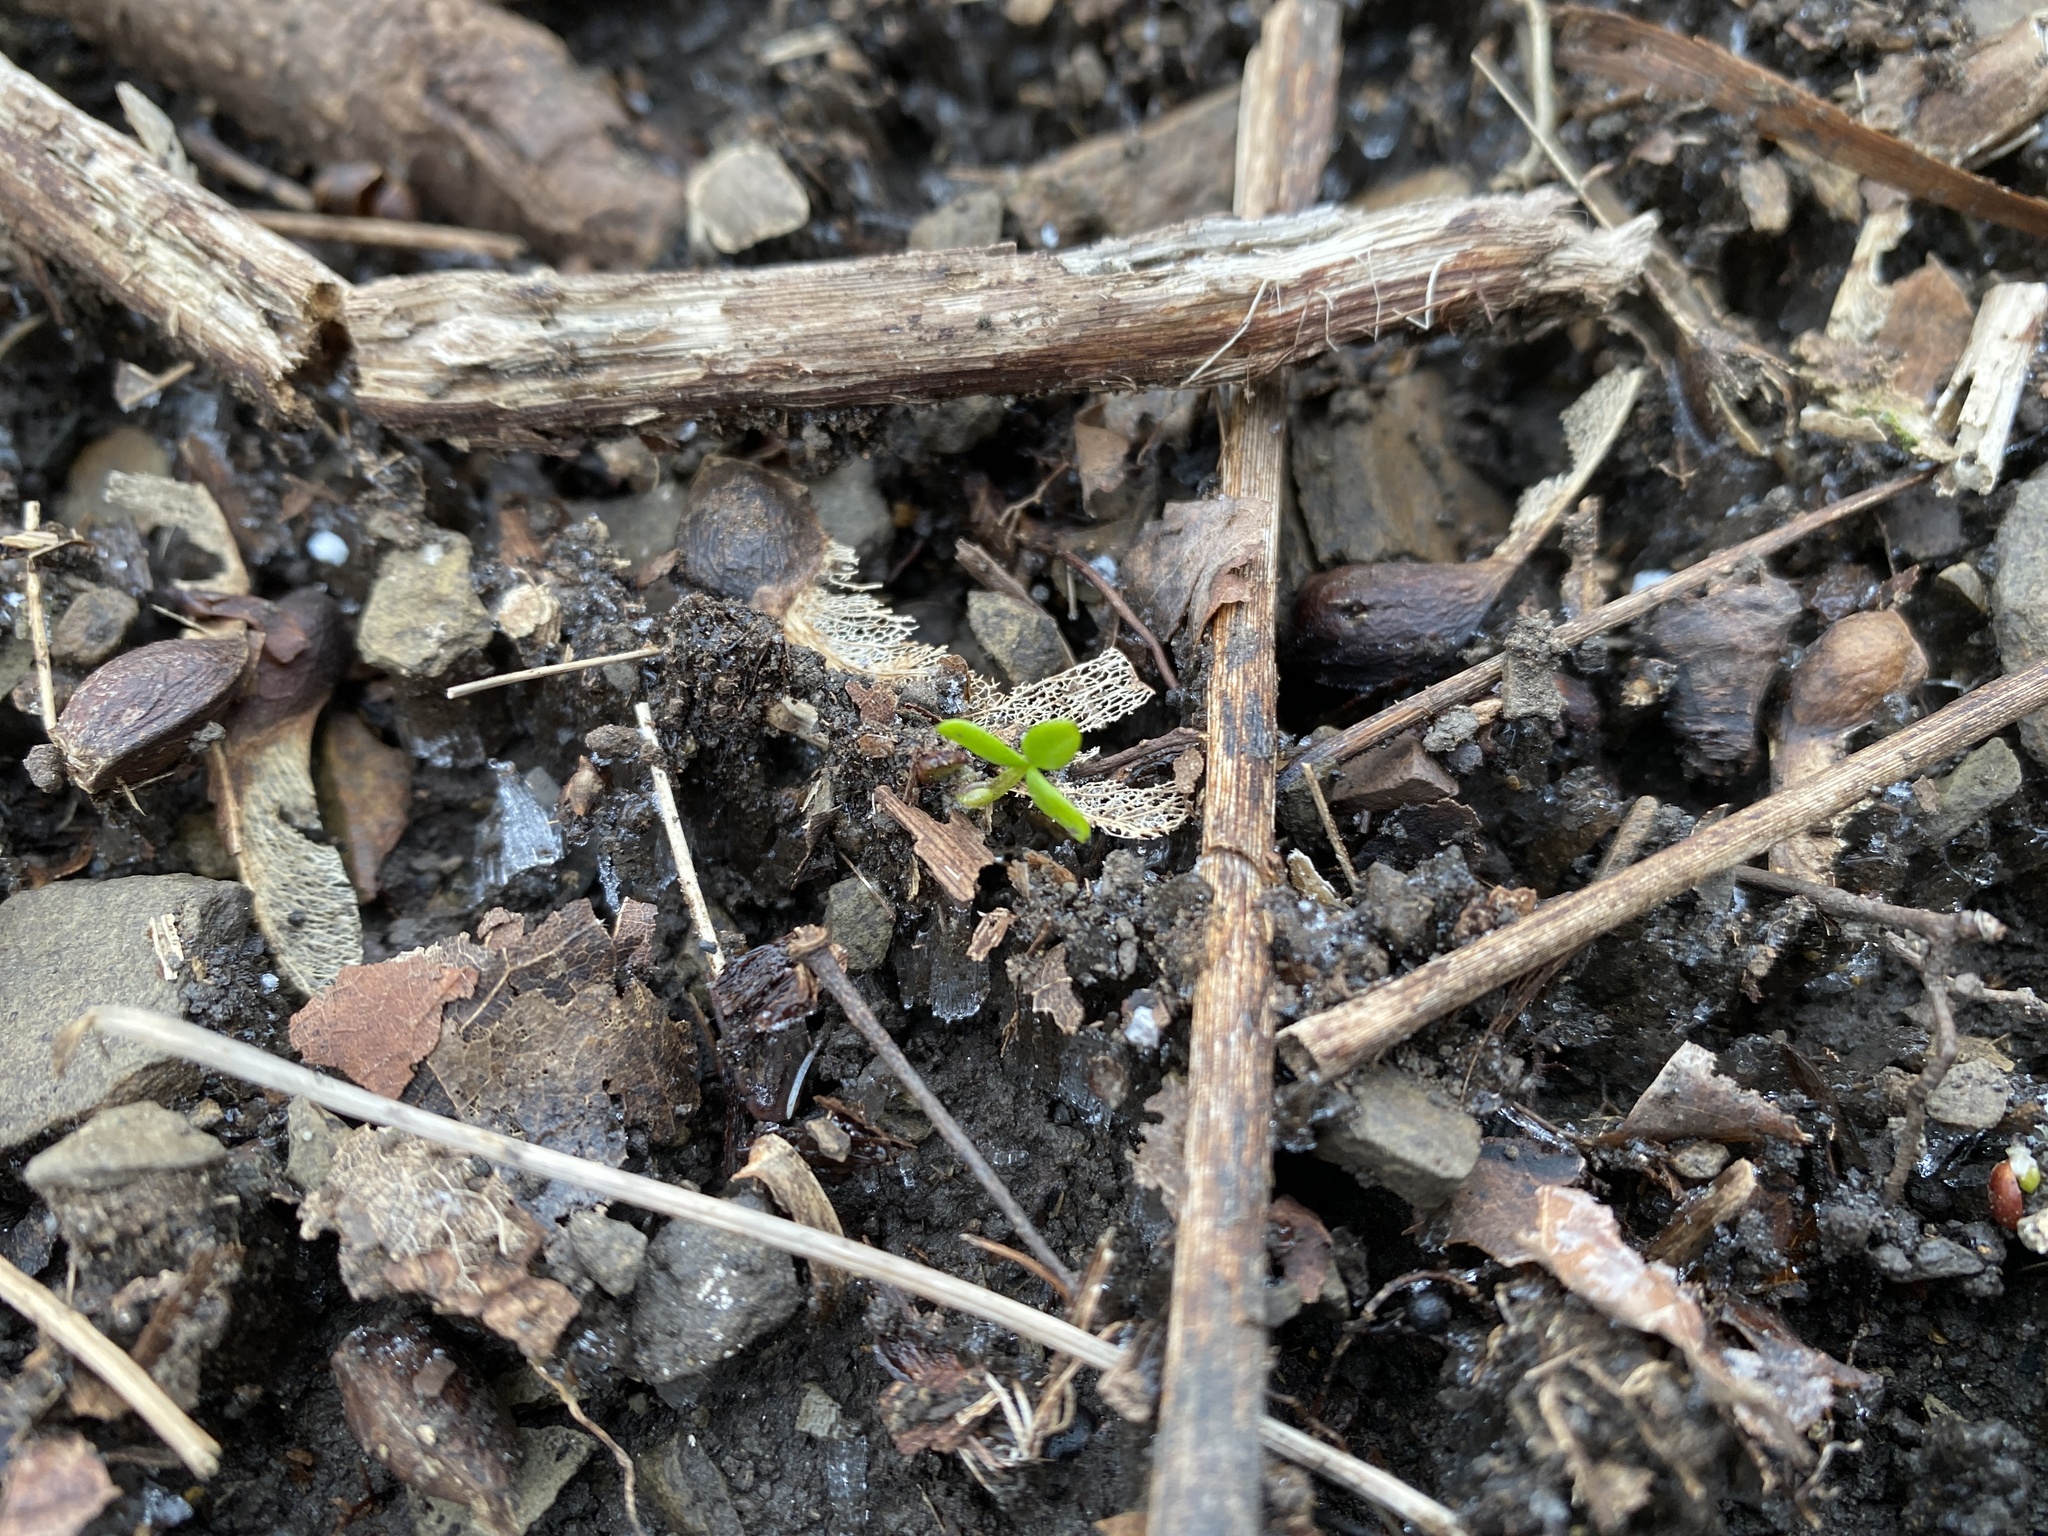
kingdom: Plantae
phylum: Tracheophyta
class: Magnoliopsida
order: Brassicales
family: Limnanthaceae
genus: Floerkea
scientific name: Floerkea proserpinacoides
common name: False mermaid
